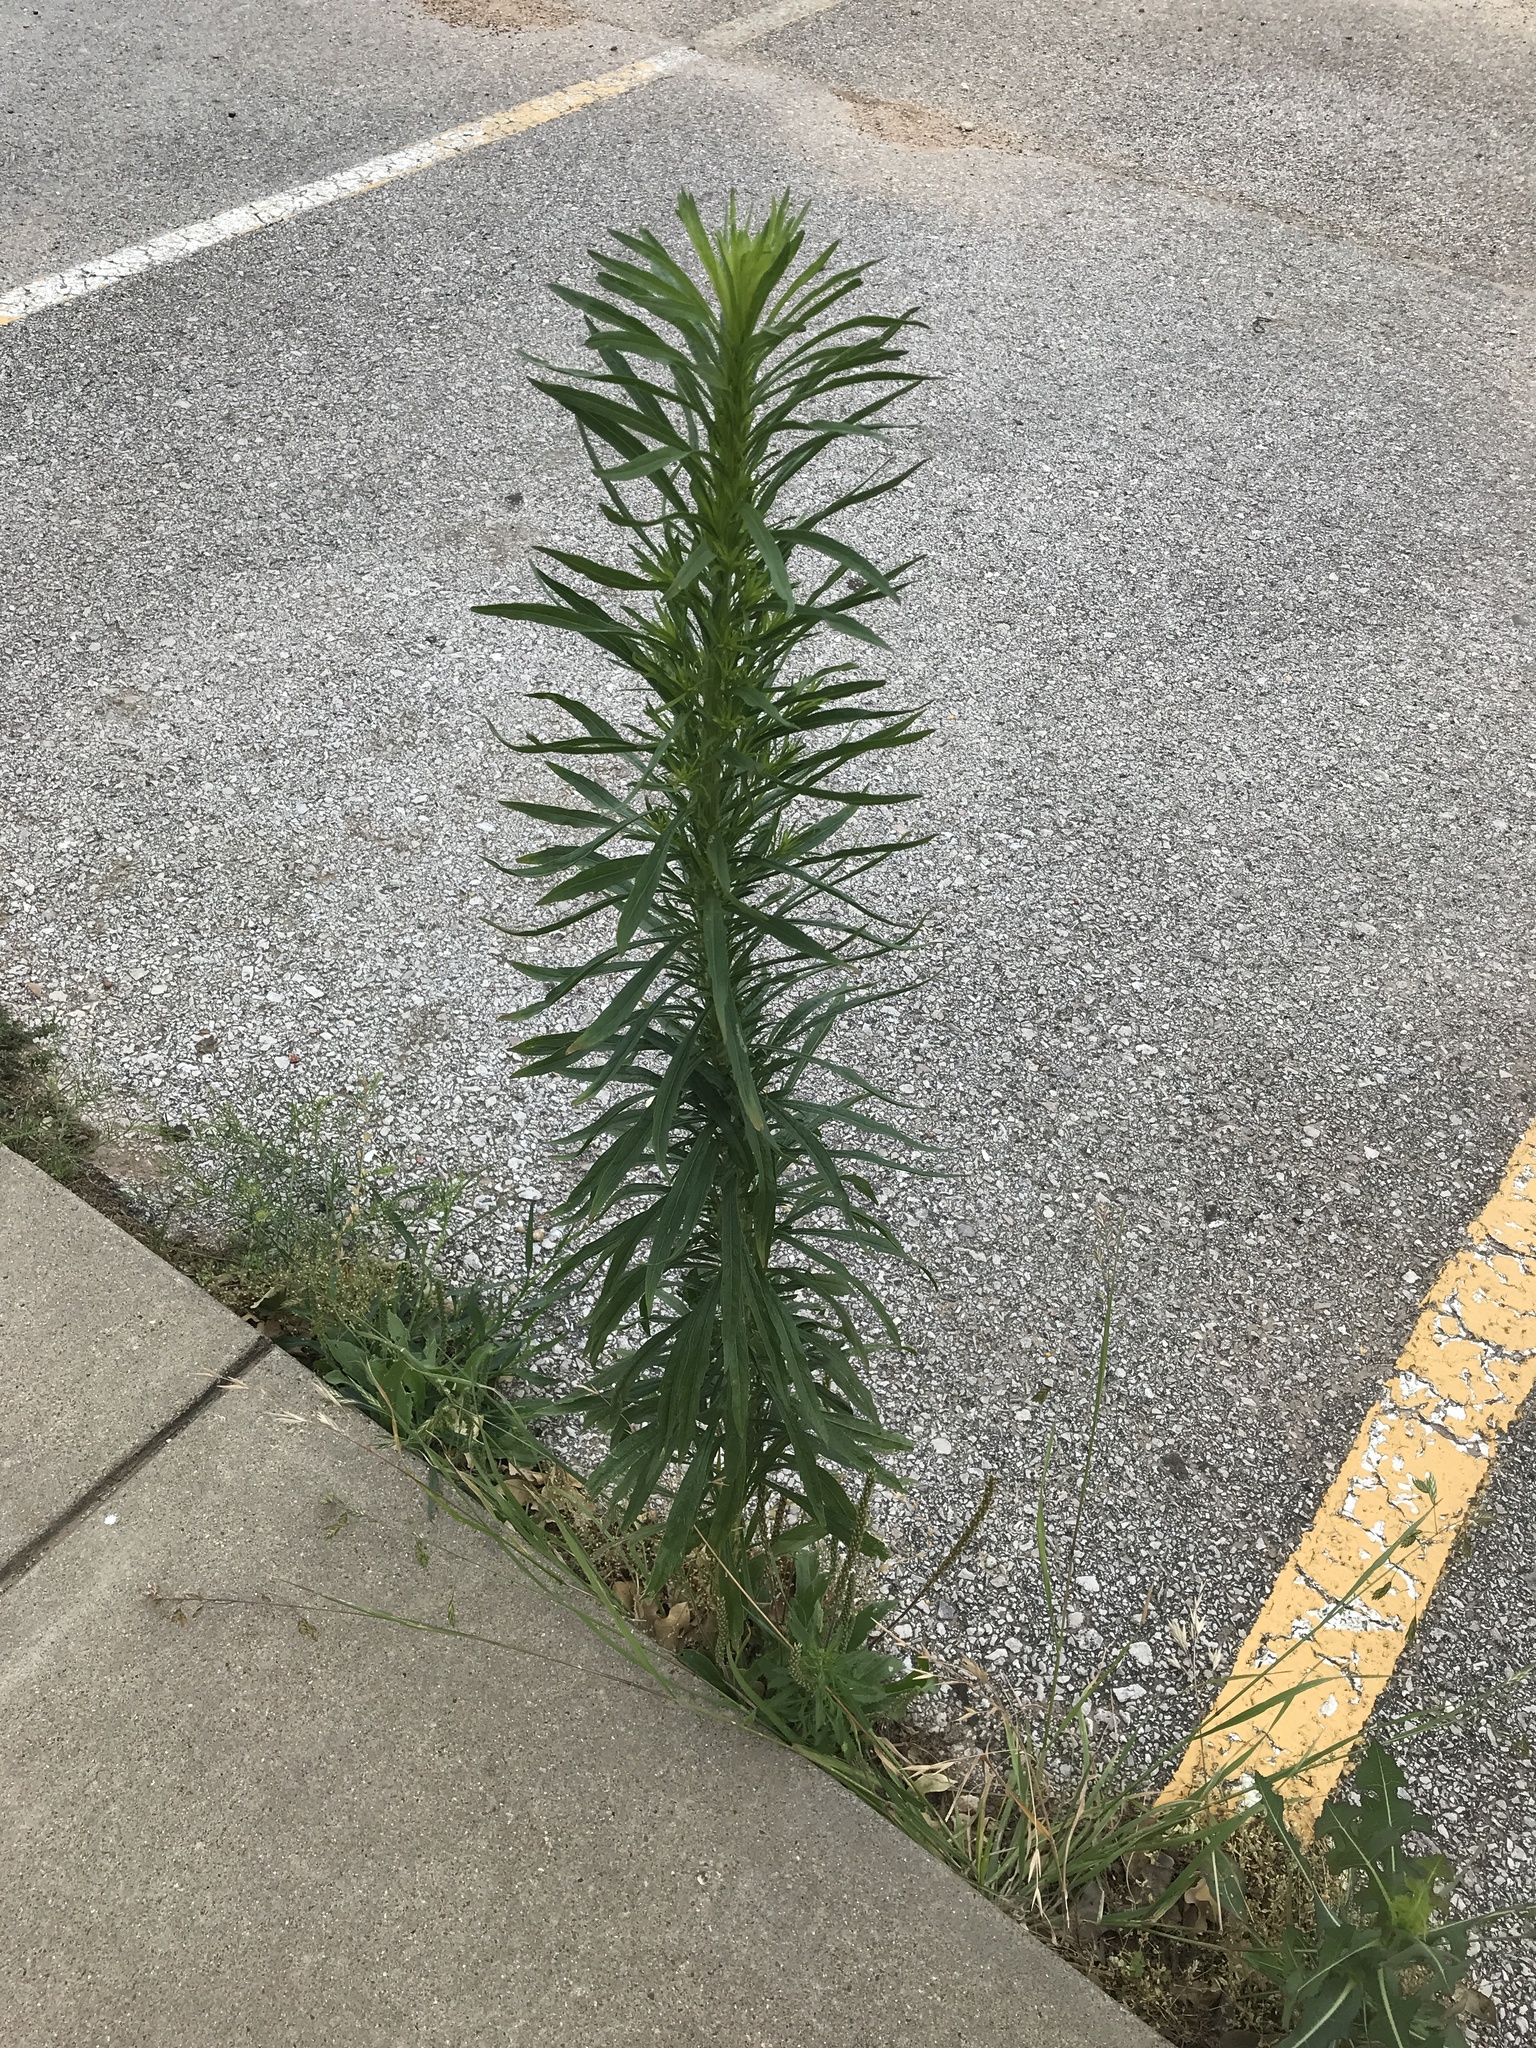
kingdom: Plantae
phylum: Tracheophyta
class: Magnoliopsida
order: Asterales
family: Asteraceae
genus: Erigeron
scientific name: Erigeron canadensis
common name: Canadian fleabane
